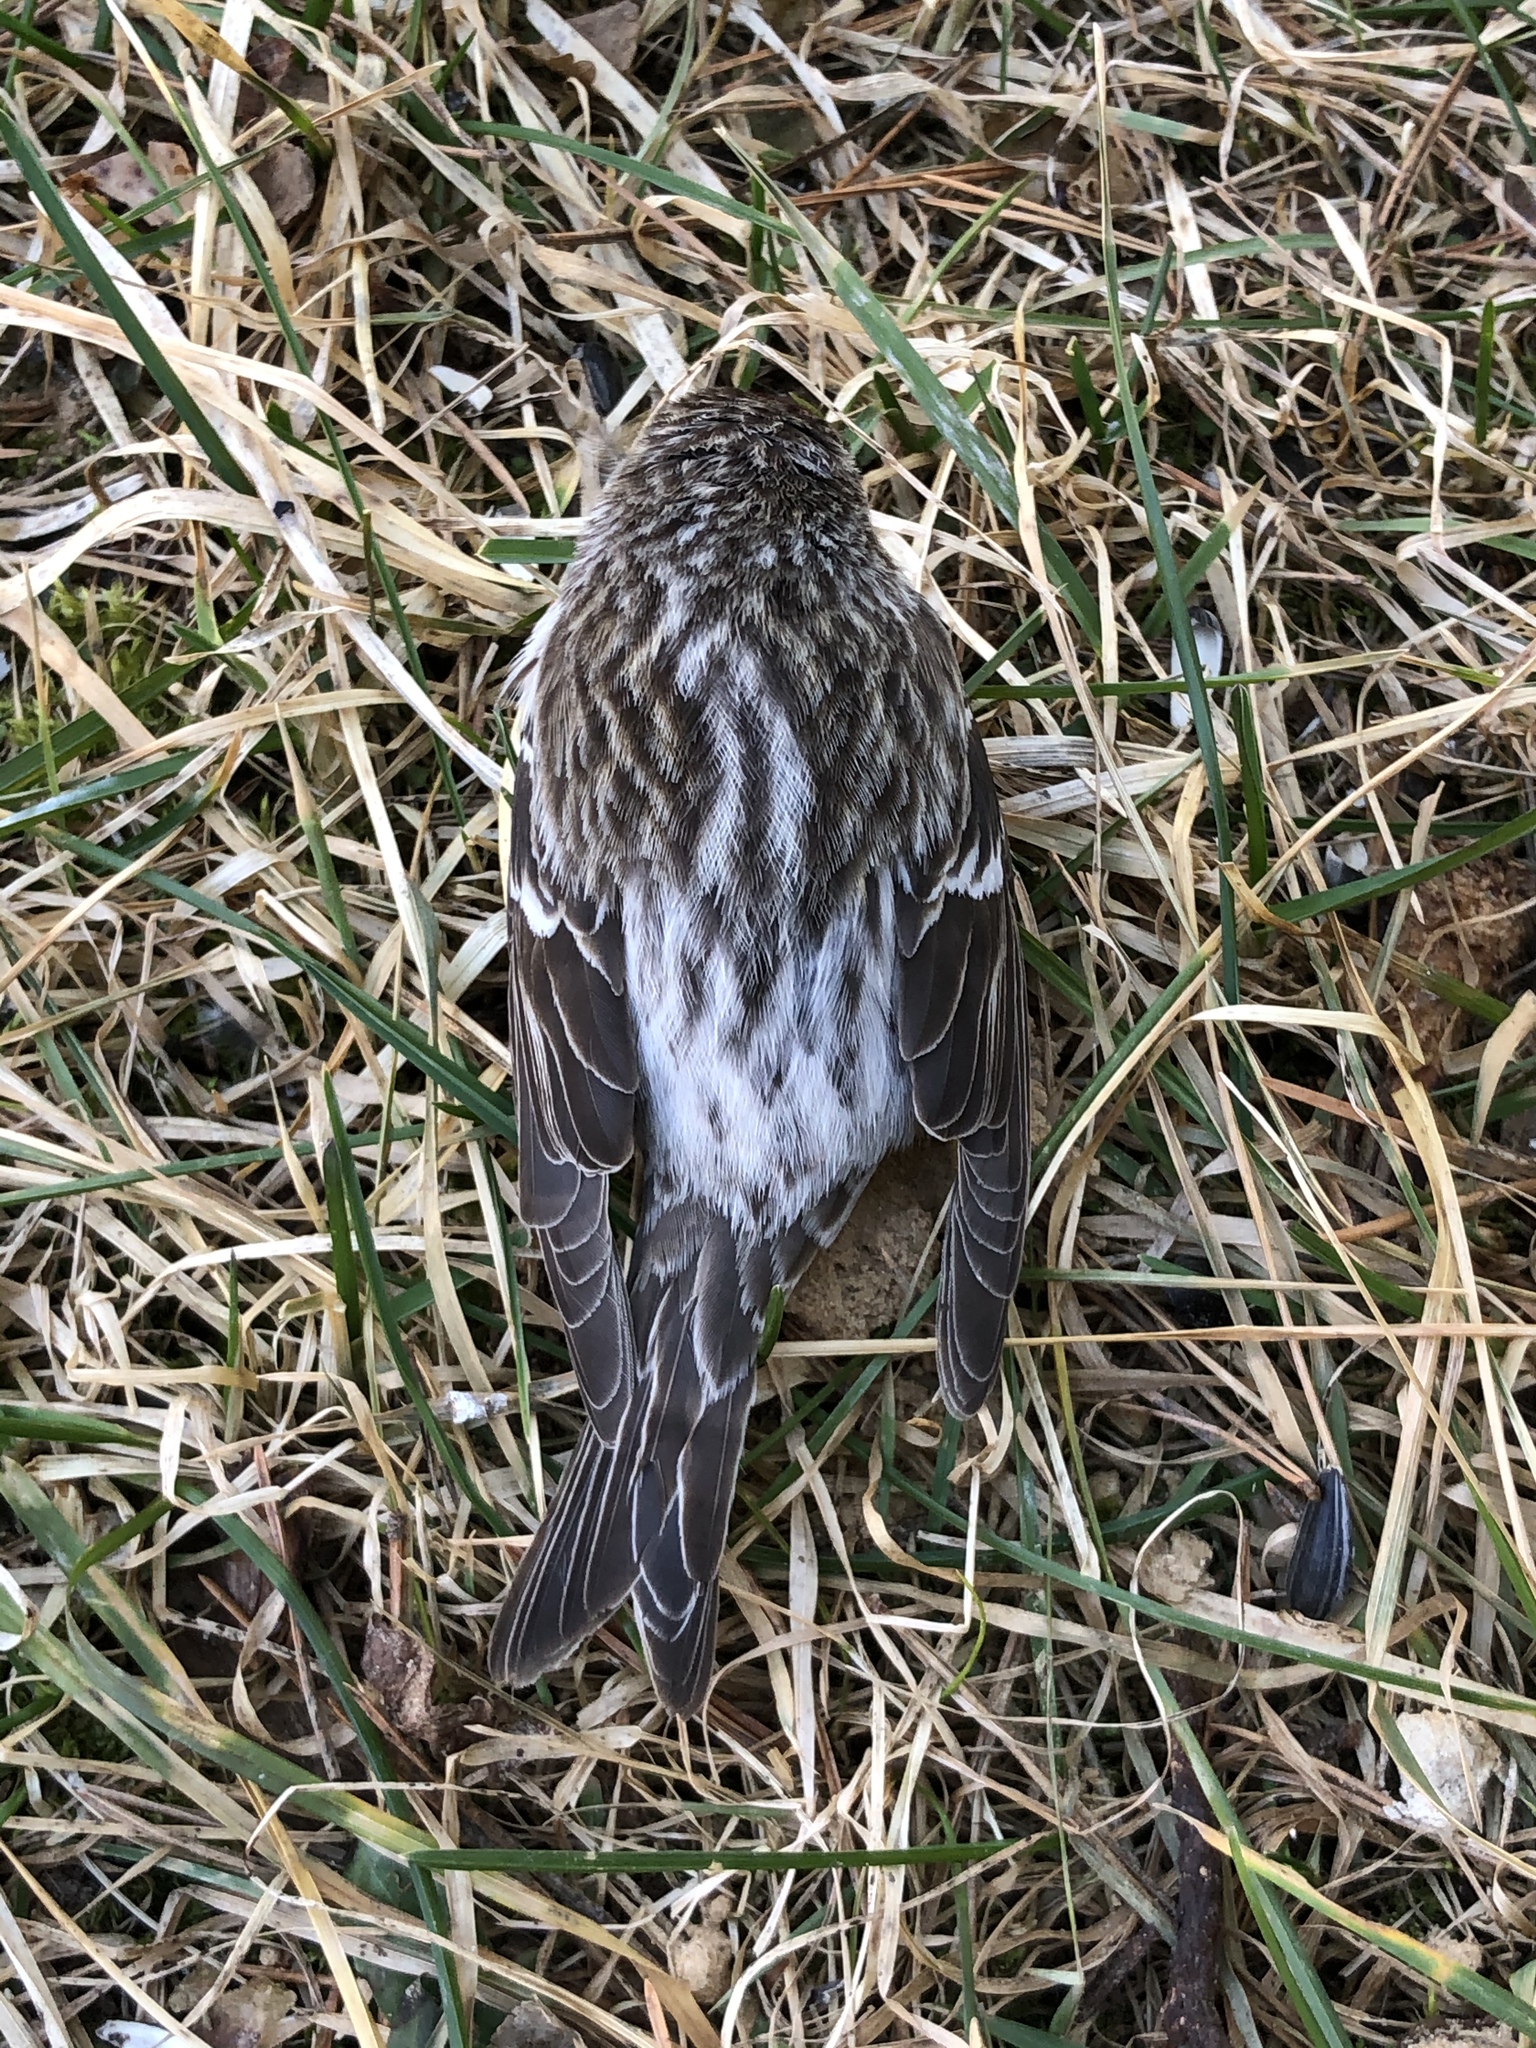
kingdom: Animalia
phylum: Chordata
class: Aves
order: Passeriformes
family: Fringillidae
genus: Acanthis
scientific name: Acanthis flammea
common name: Common redpoll
